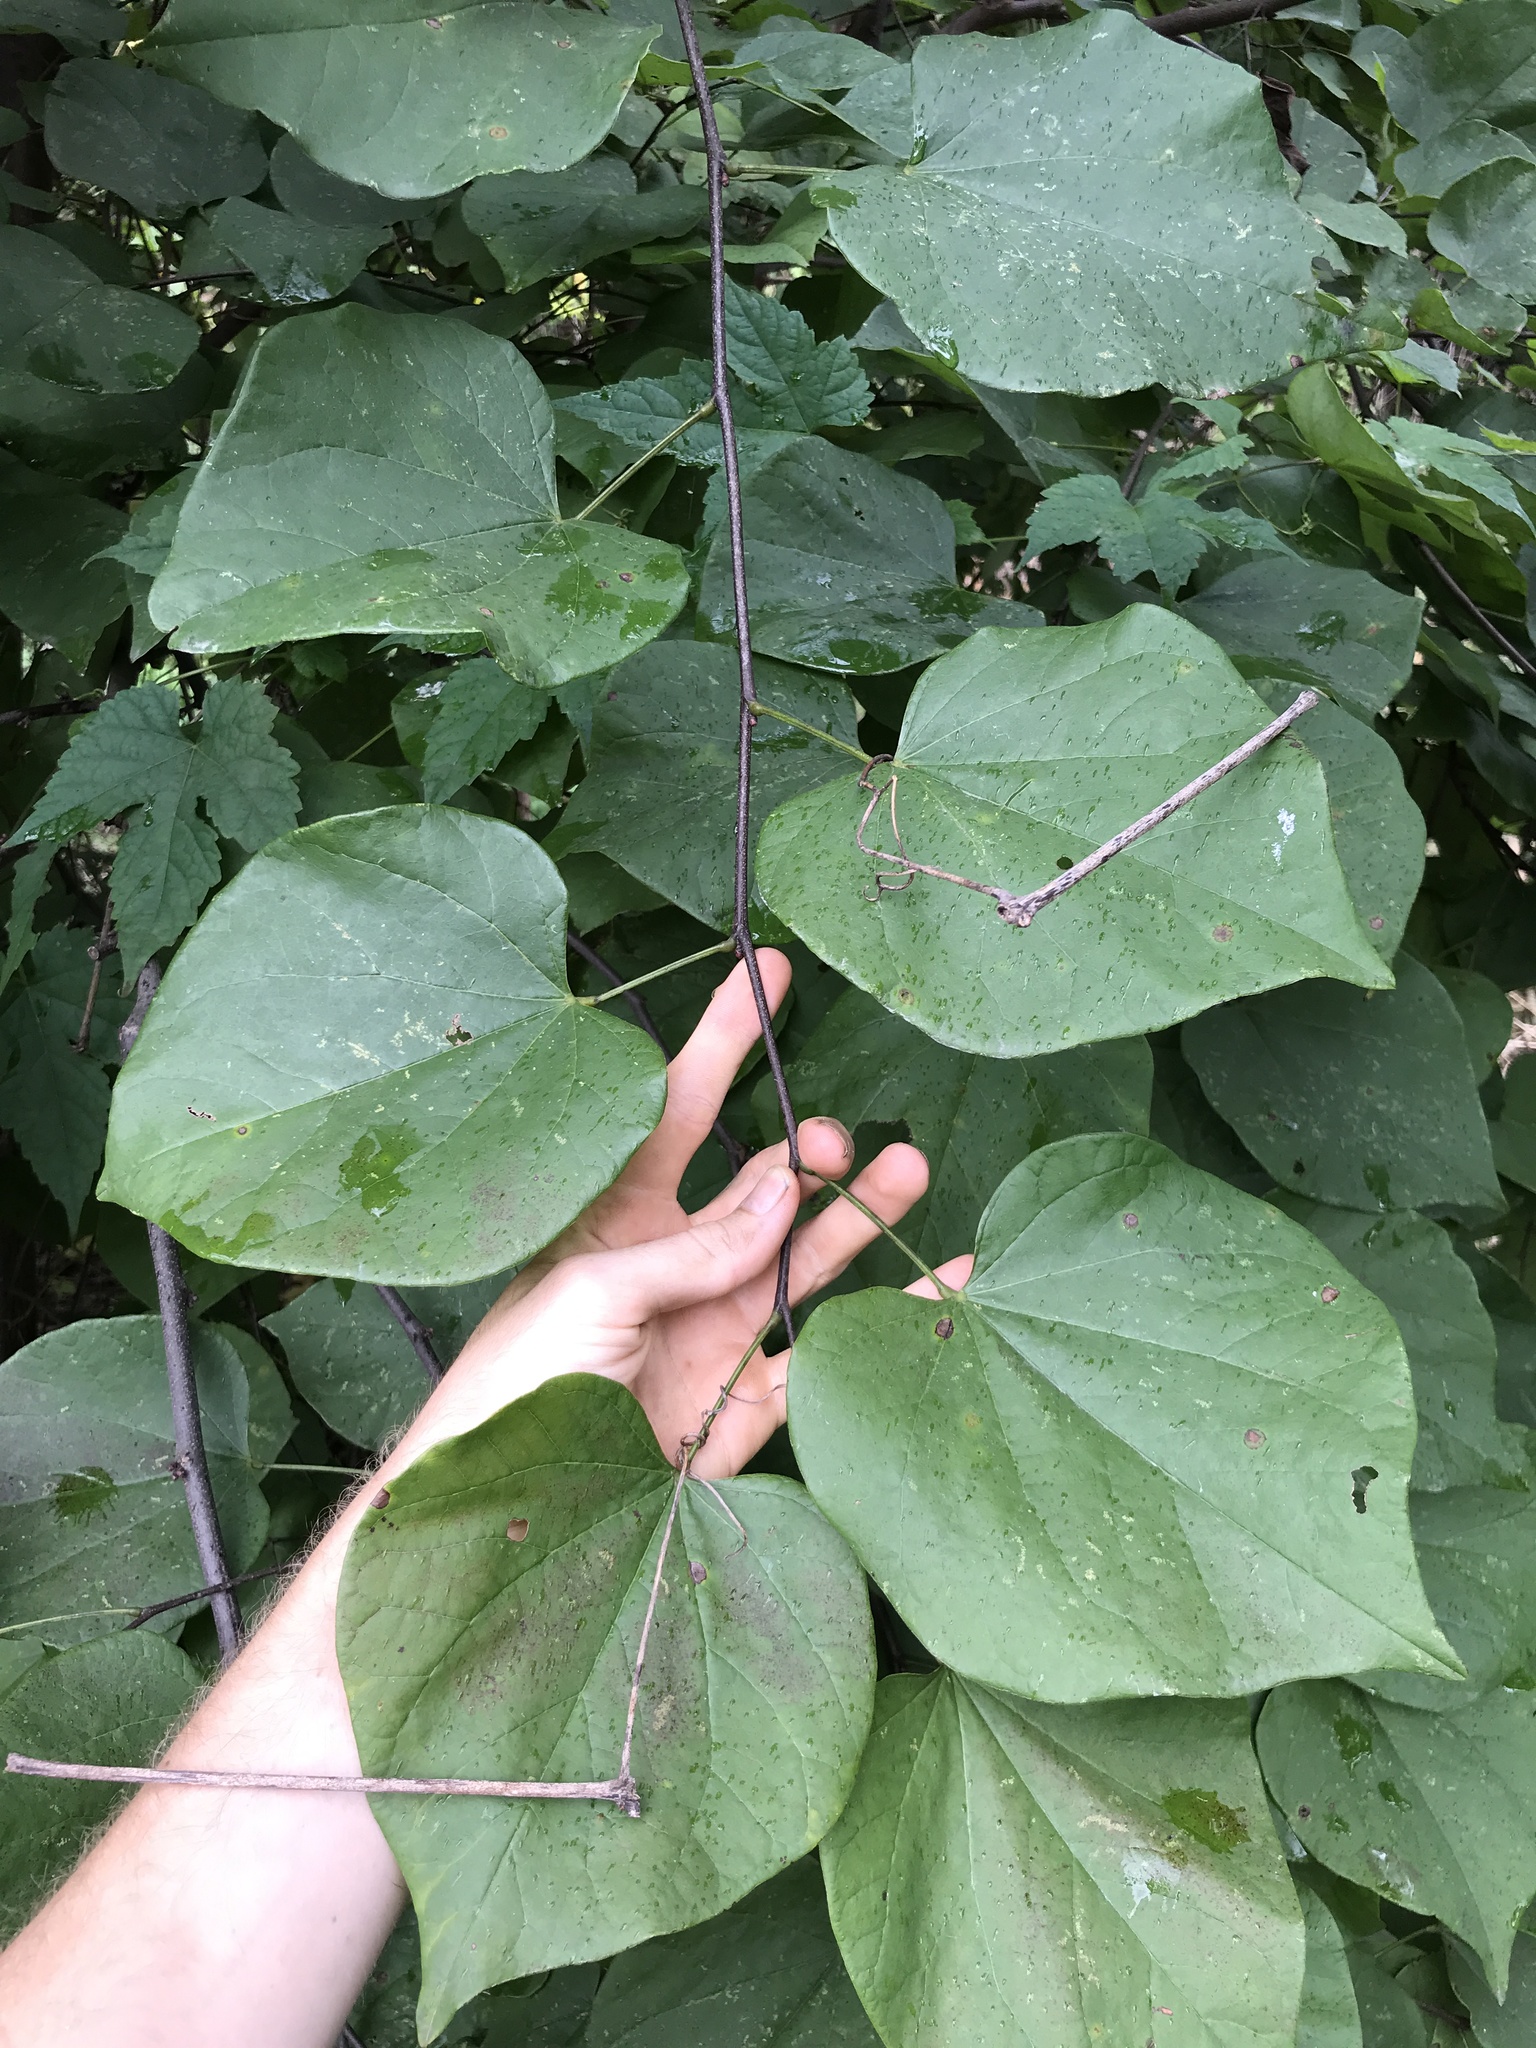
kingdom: Plantae
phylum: Tracheophyta
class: Magnoliopsida
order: Fabales
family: Fabaceae
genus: Cercis
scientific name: Cercis canadensis
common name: Eastern redbud
